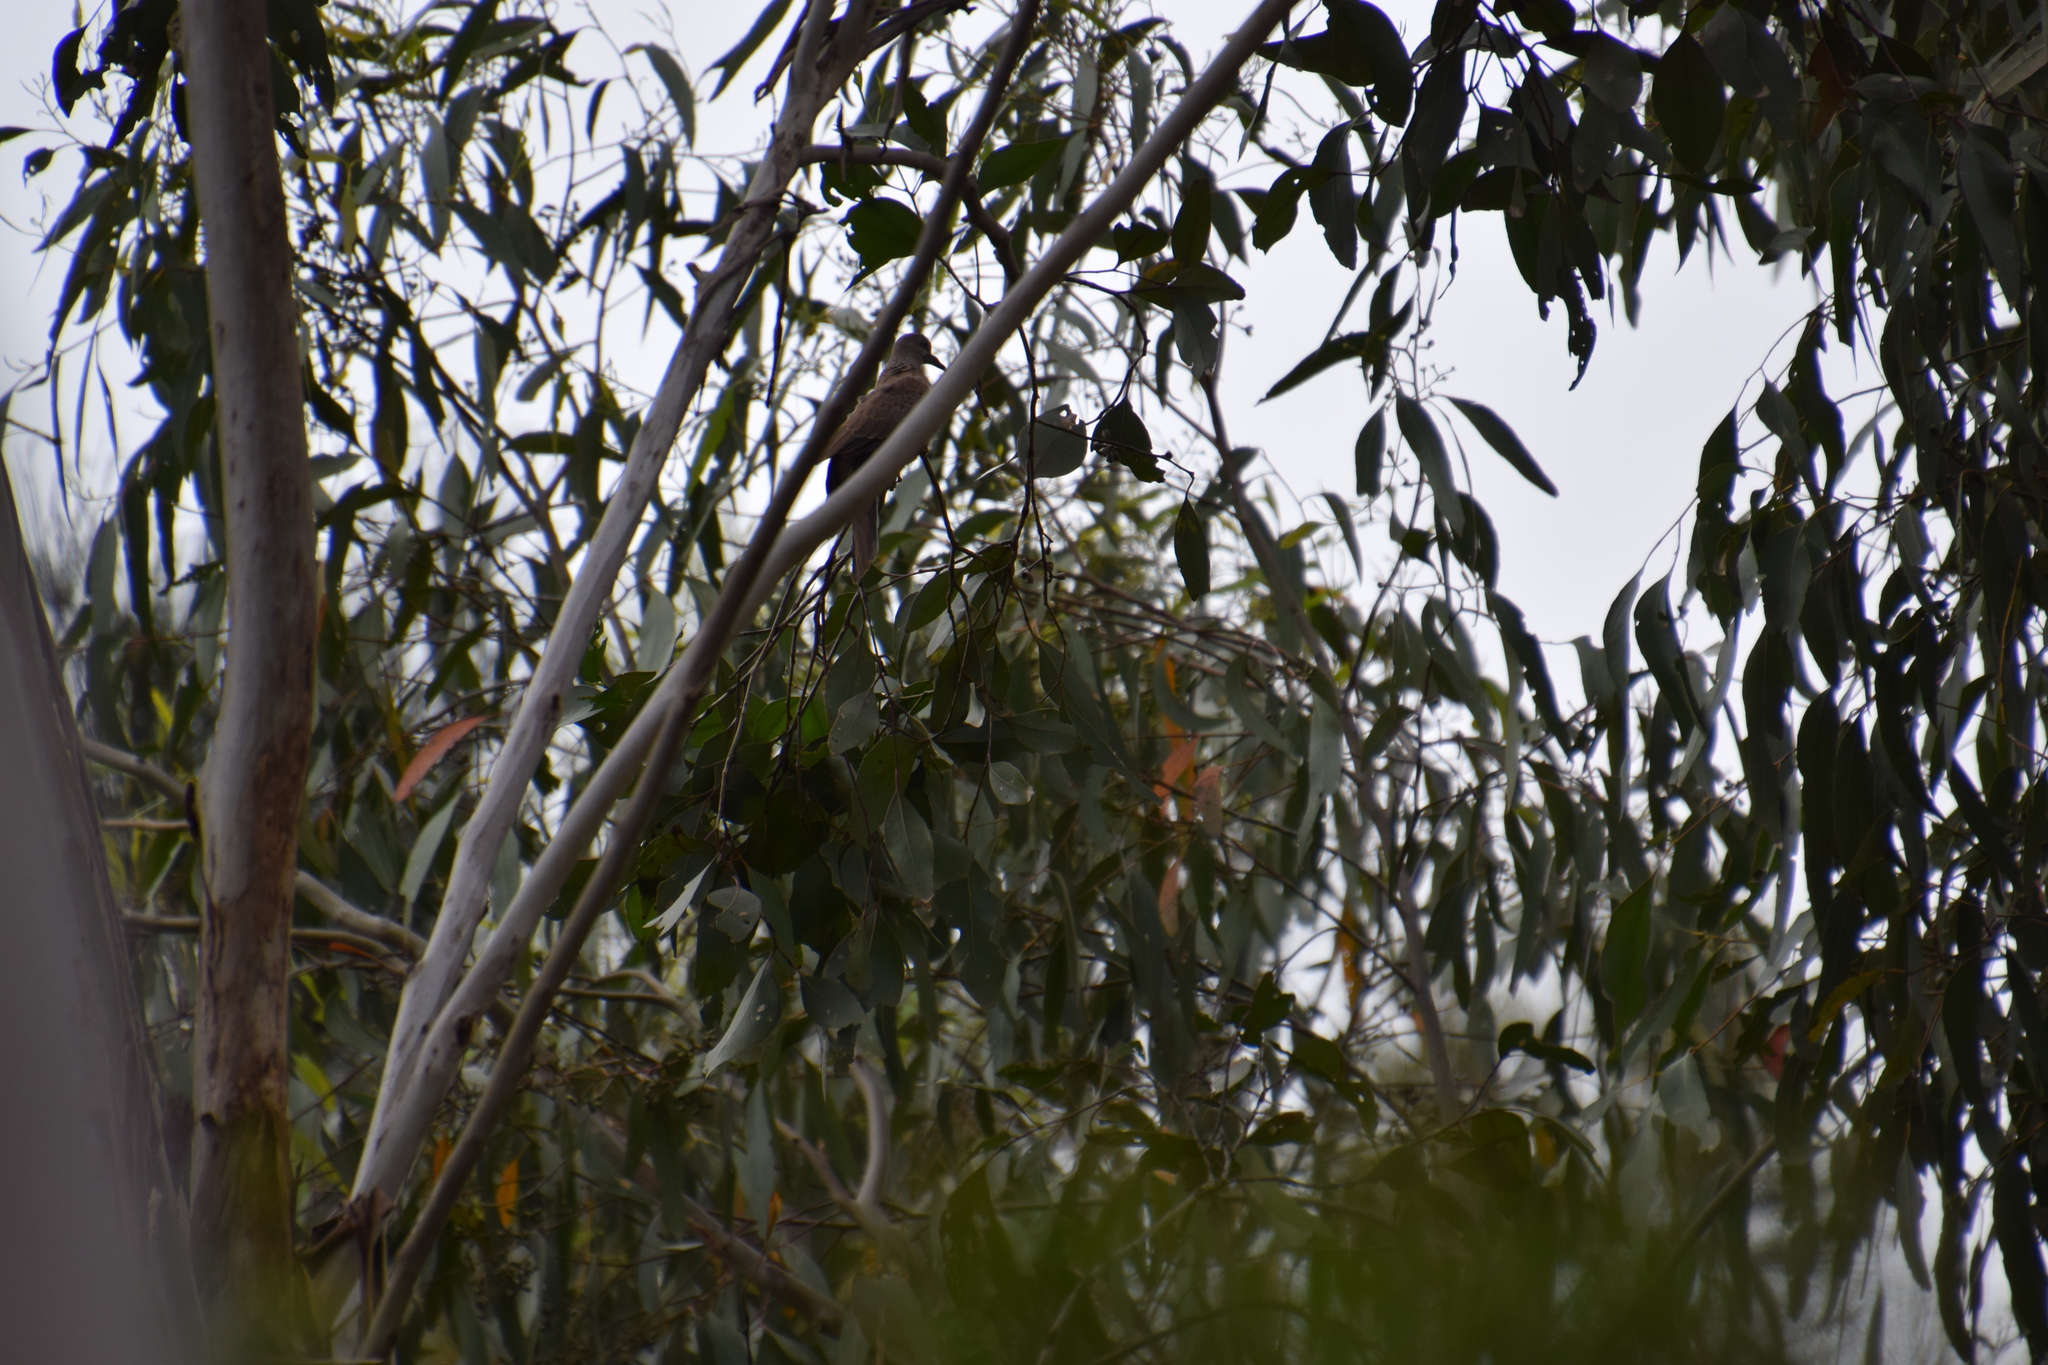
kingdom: Animalia
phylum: Chordata
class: Aves
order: Columbiformes
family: Columbidae
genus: Spilopelia
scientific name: Spilopelia chinensis
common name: Spotted dove
